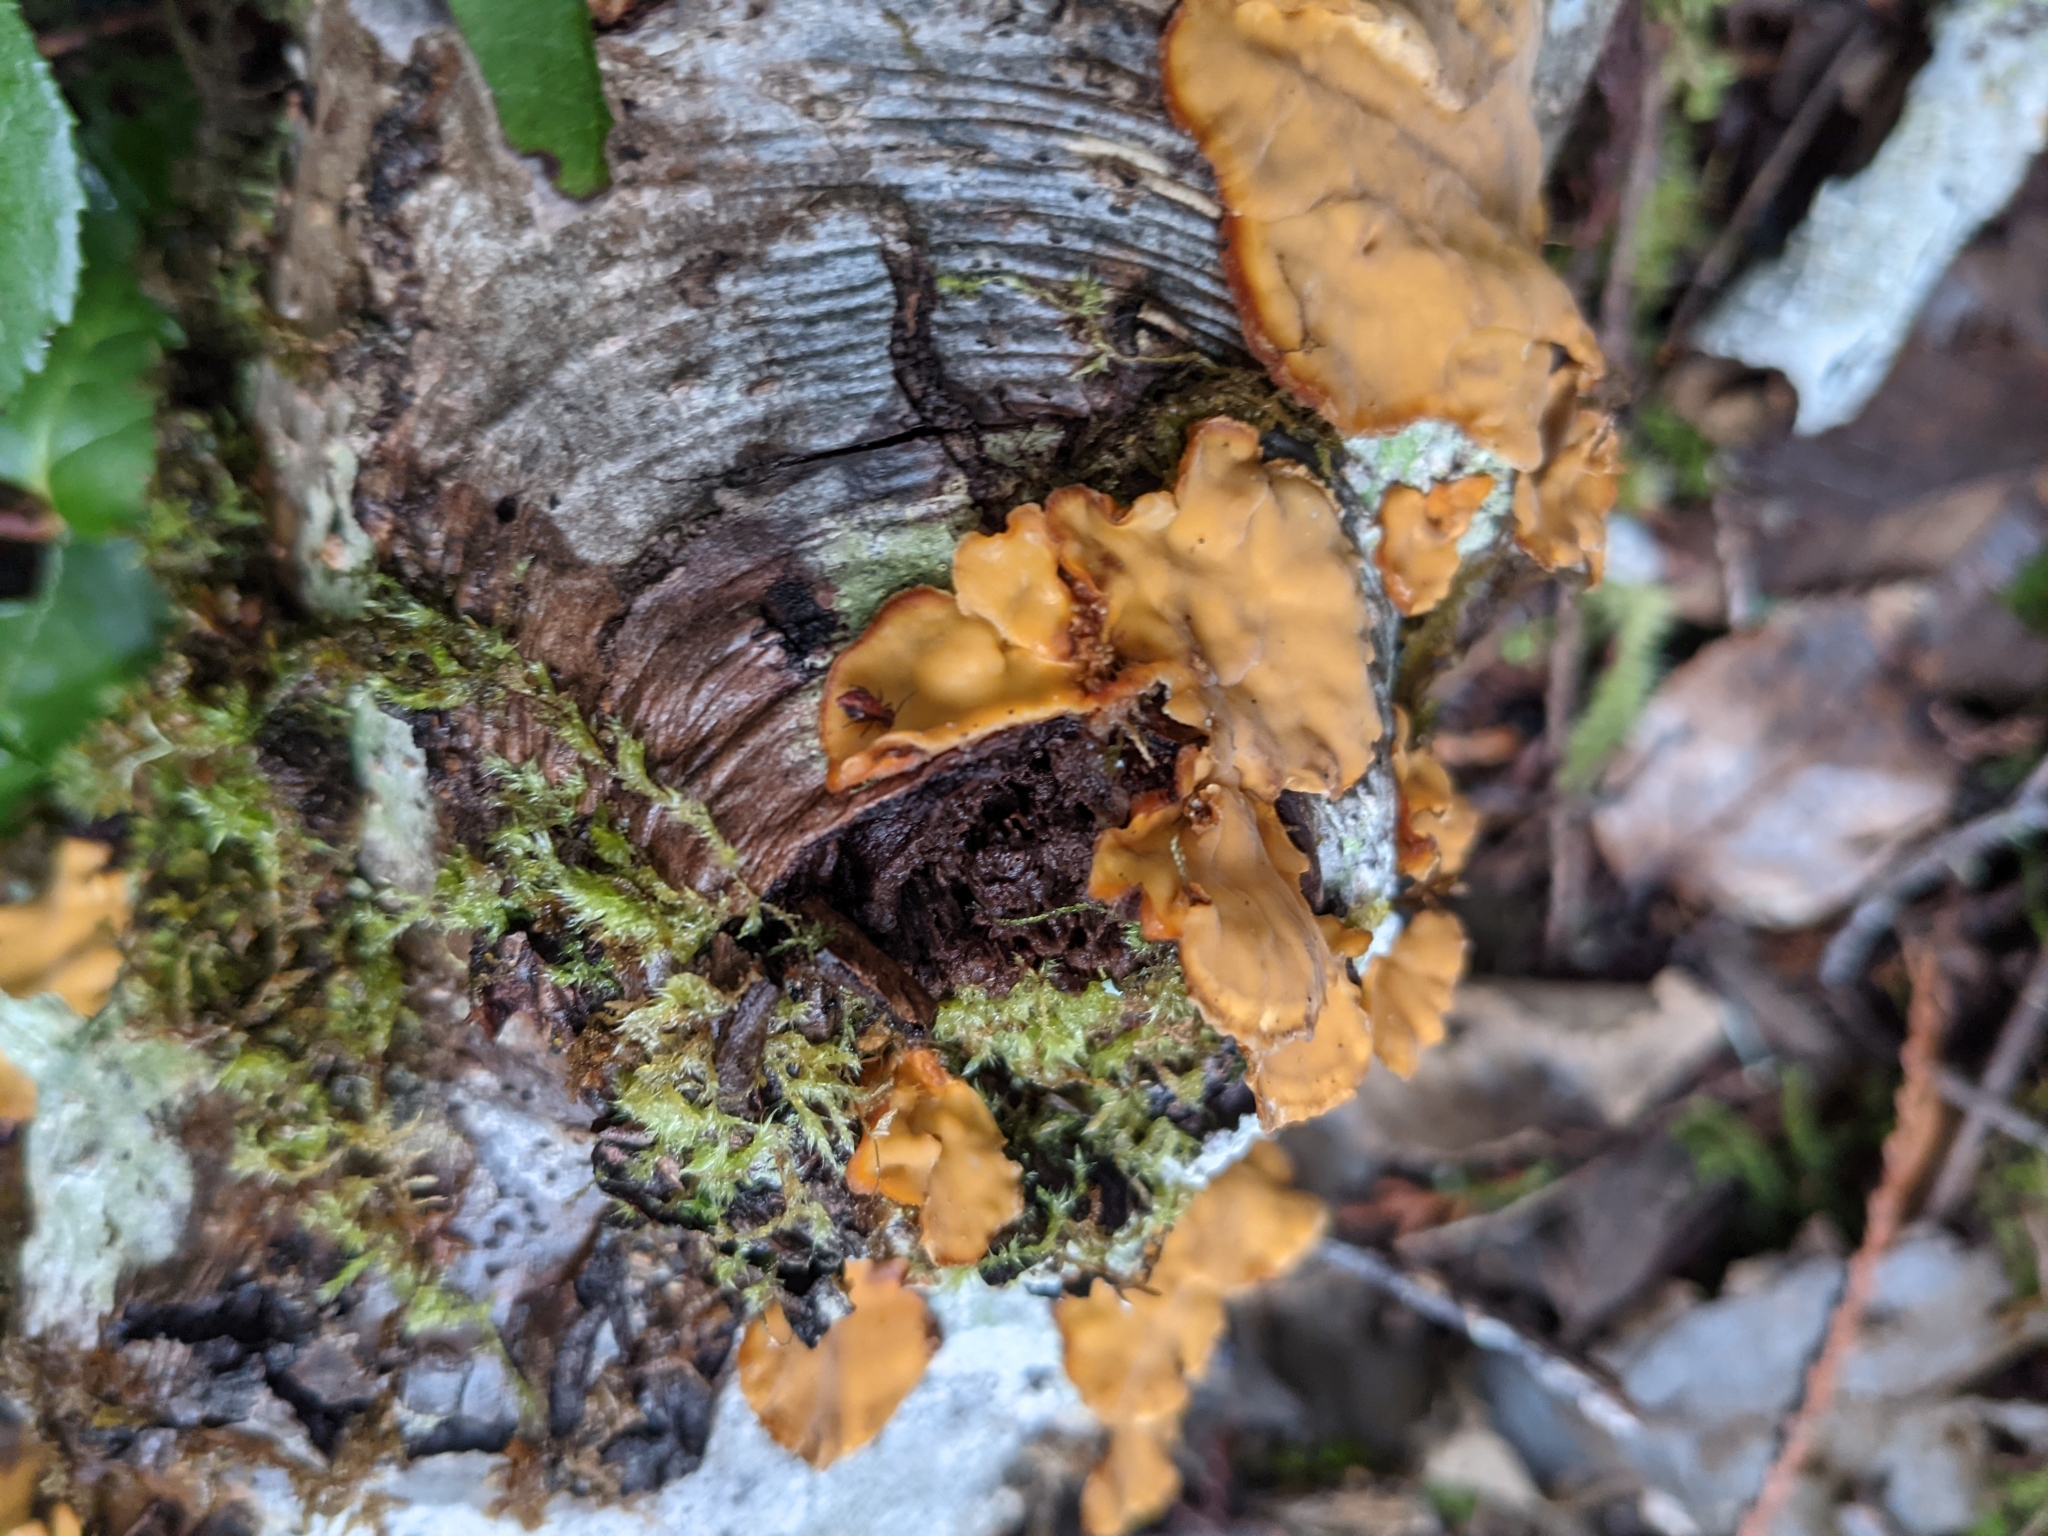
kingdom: Fungi
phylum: Basidiomycota
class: Agaricomycetes
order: Russulales
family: Stereaceae
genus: Stereum
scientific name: Stereum hirsutum
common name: Hairy curtain crust
